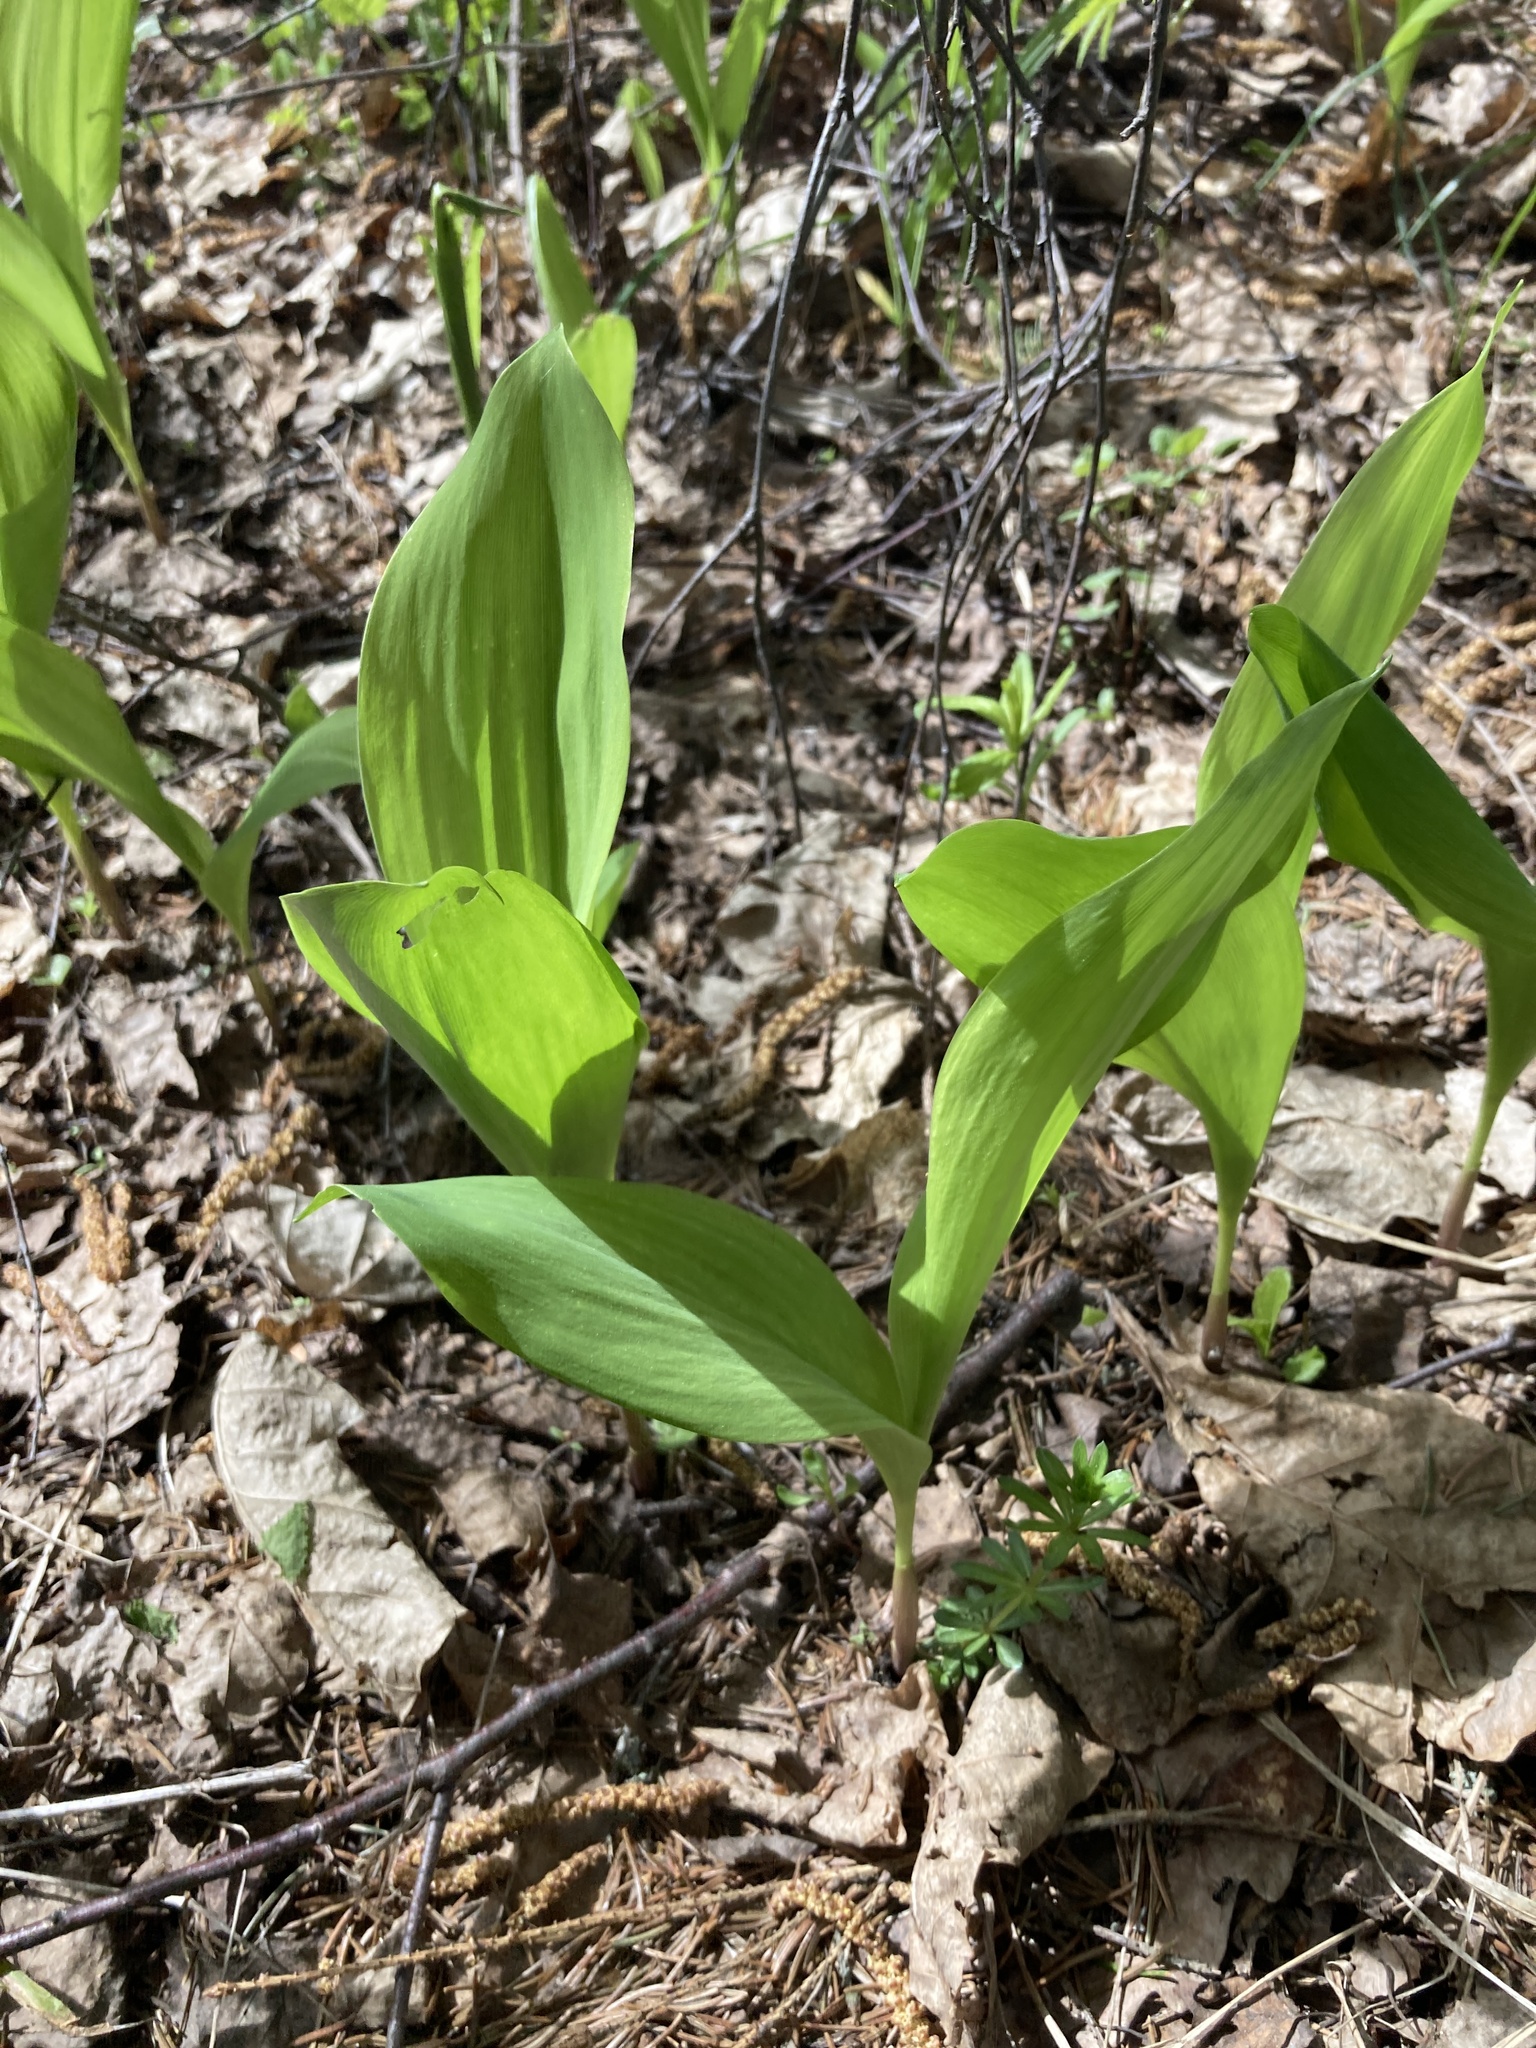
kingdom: Plantae
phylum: Tracheophyta
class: Liliopsida
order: Asparagales
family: Asparagaceae
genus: Convallaria
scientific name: Convallaria majalis
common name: Lily-of-the-valley
